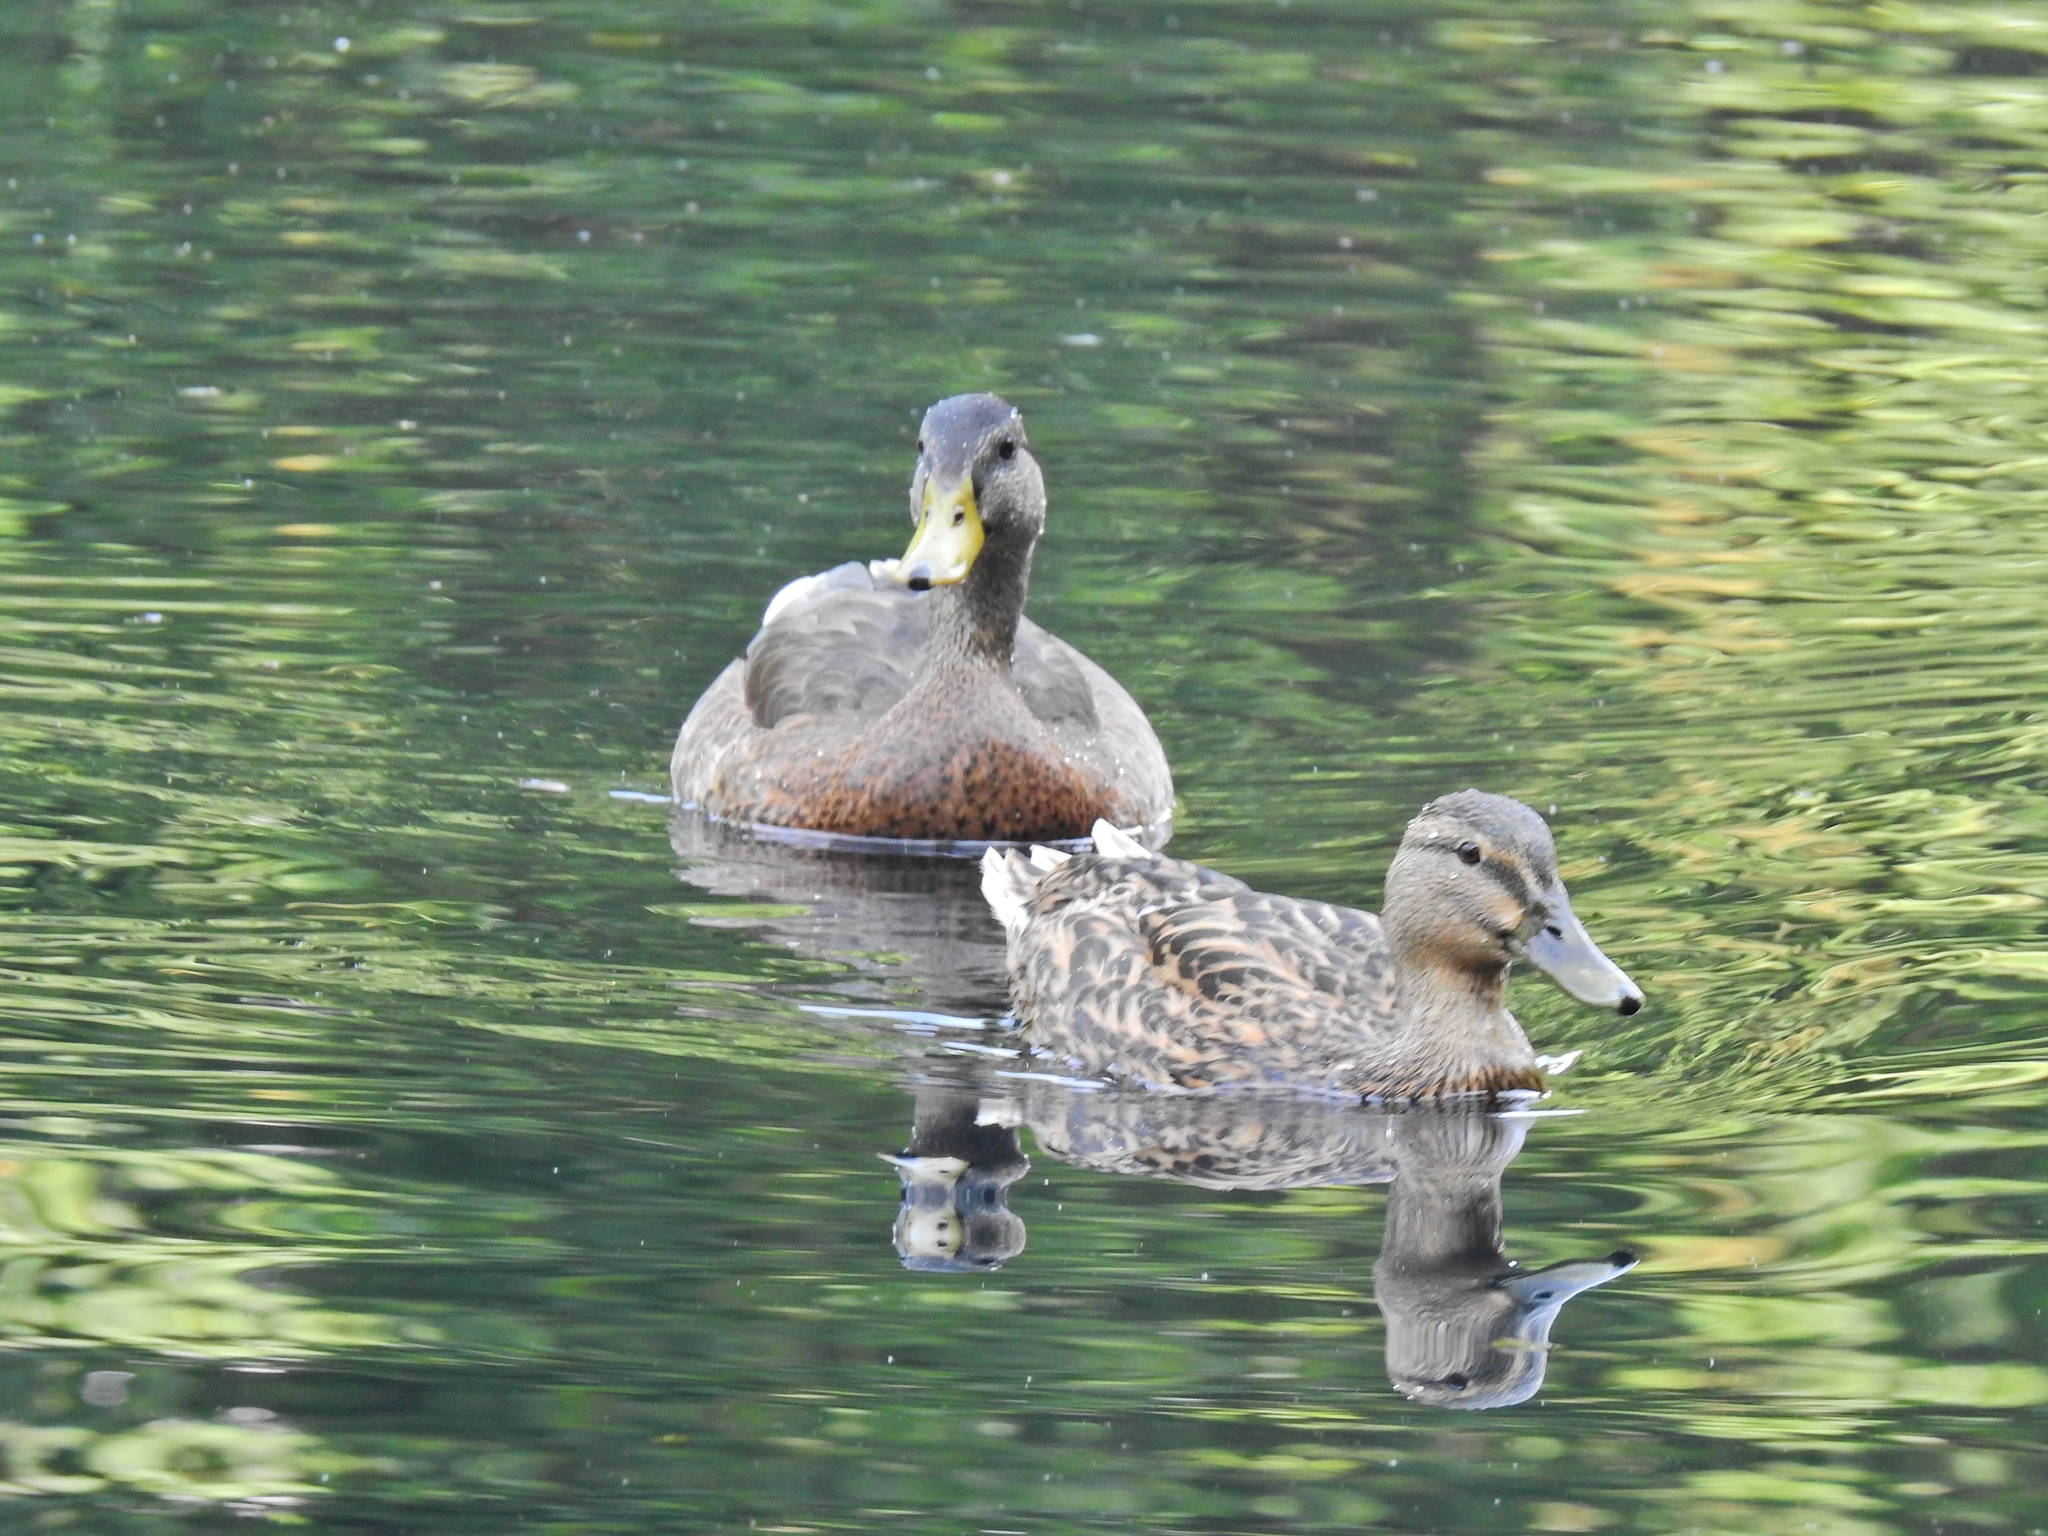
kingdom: Animalia
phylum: Chordata
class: Aves
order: Anseriformes
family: Anatidae
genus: Anas
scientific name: Anas platyrhynchos
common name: Mallard
